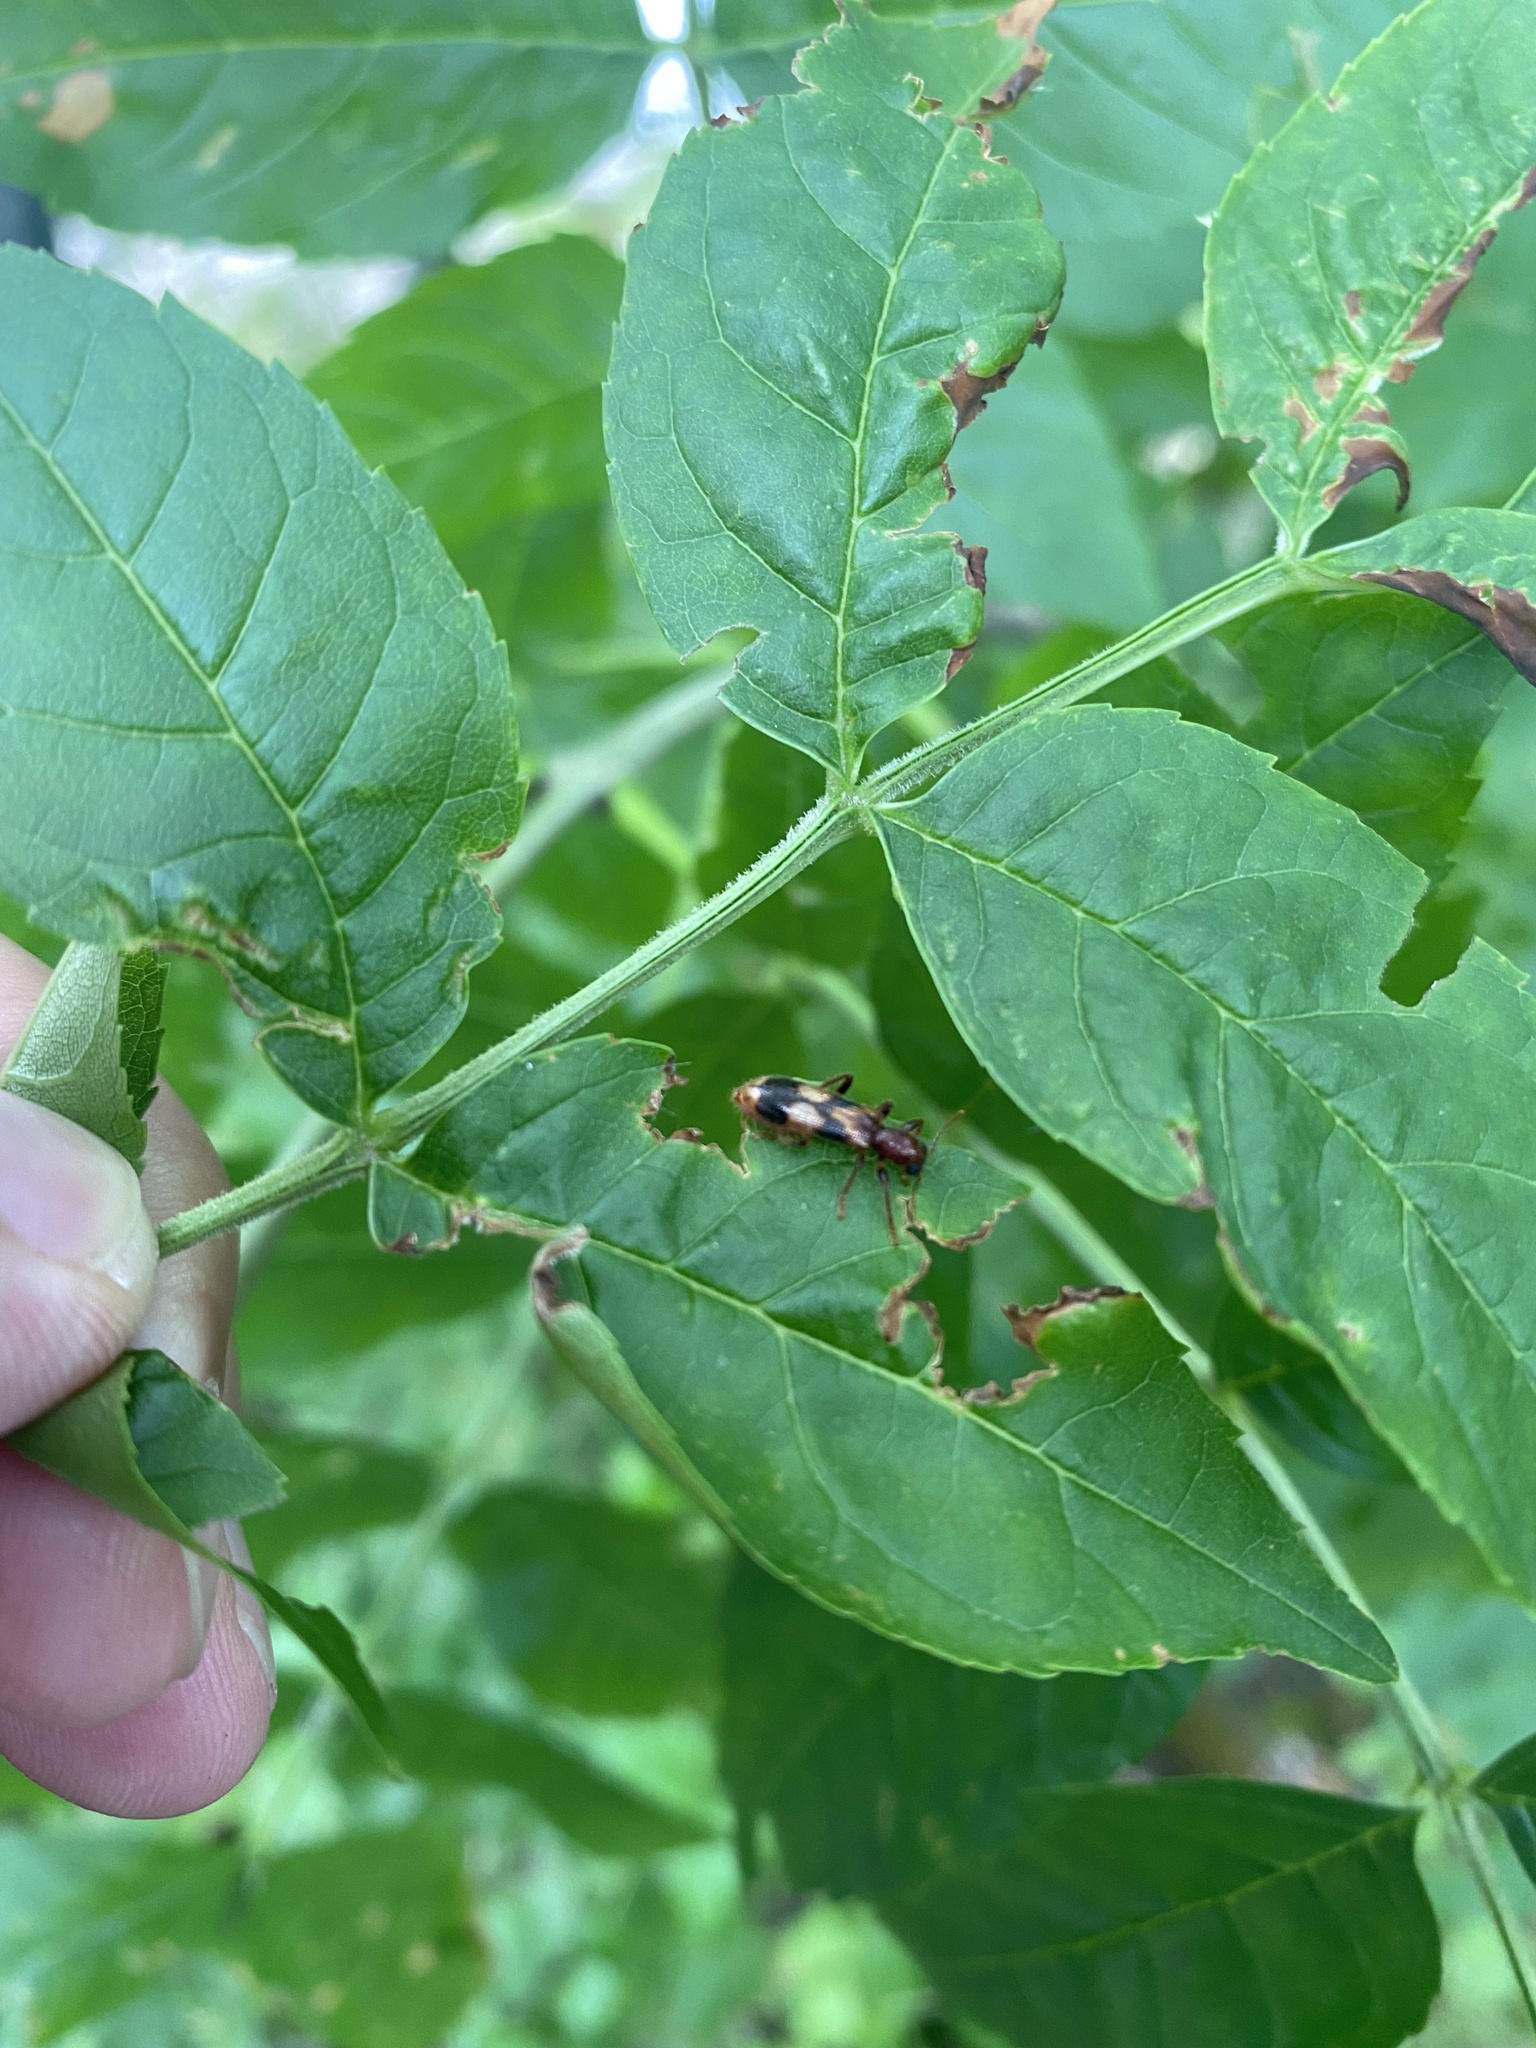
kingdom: Animalia
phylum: Arthropoda
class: Insecta
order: Coleoptera
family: Cleridae
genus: Opilo
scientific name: Opilo mollis
